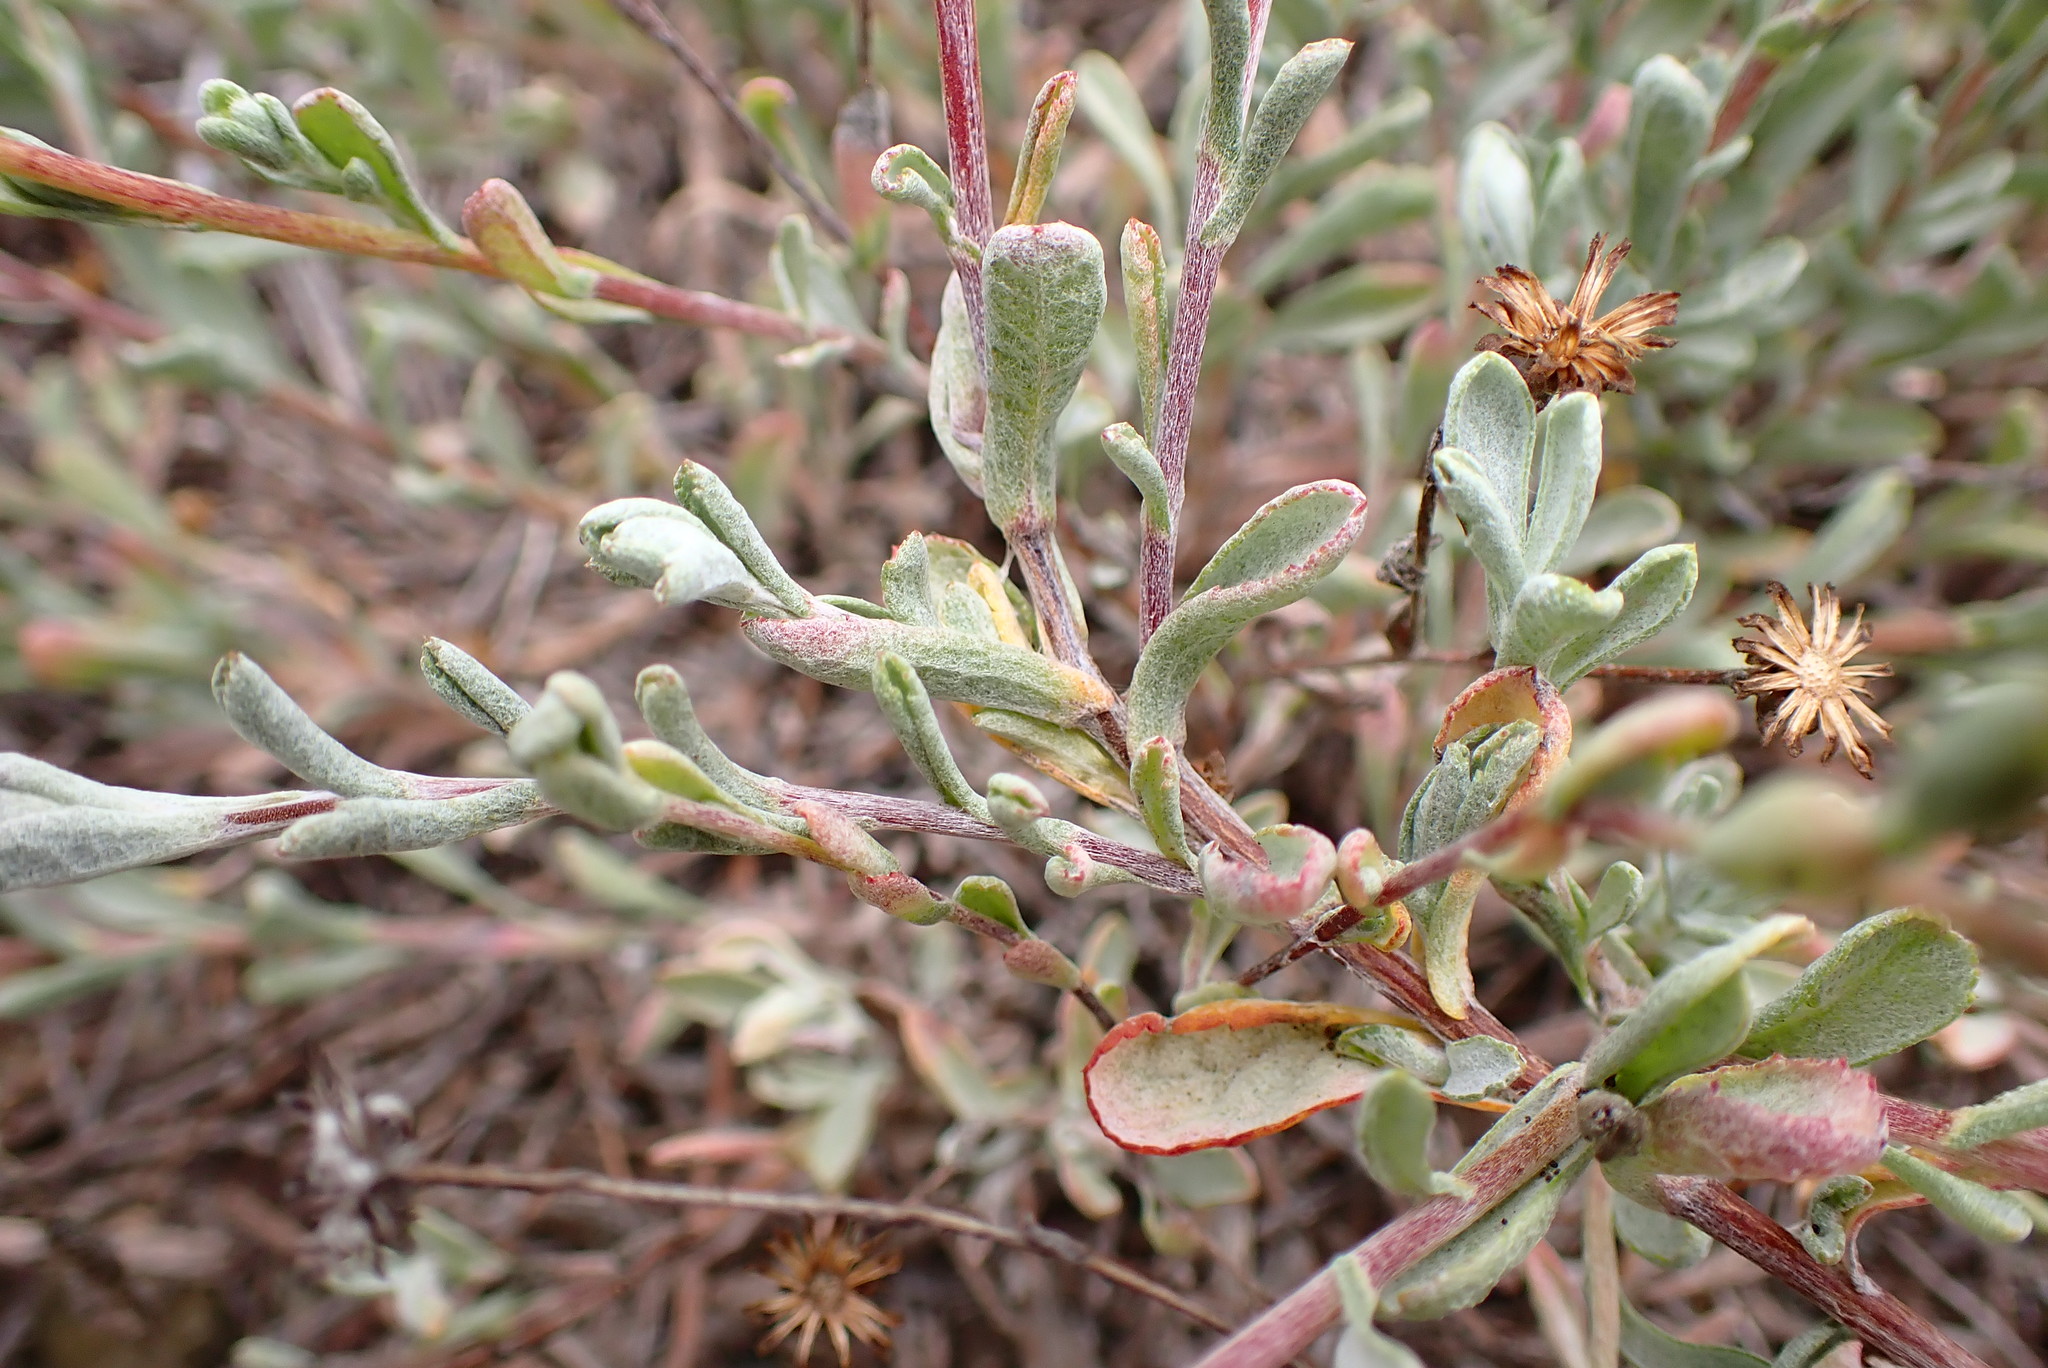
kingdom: Plantae
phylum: Tracheophyta
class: Magnoliopsida
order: Asterales
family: Asteraceae
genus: Corethrogyne
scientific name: Corethrogyne filaginifolia
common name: Sand-aster
